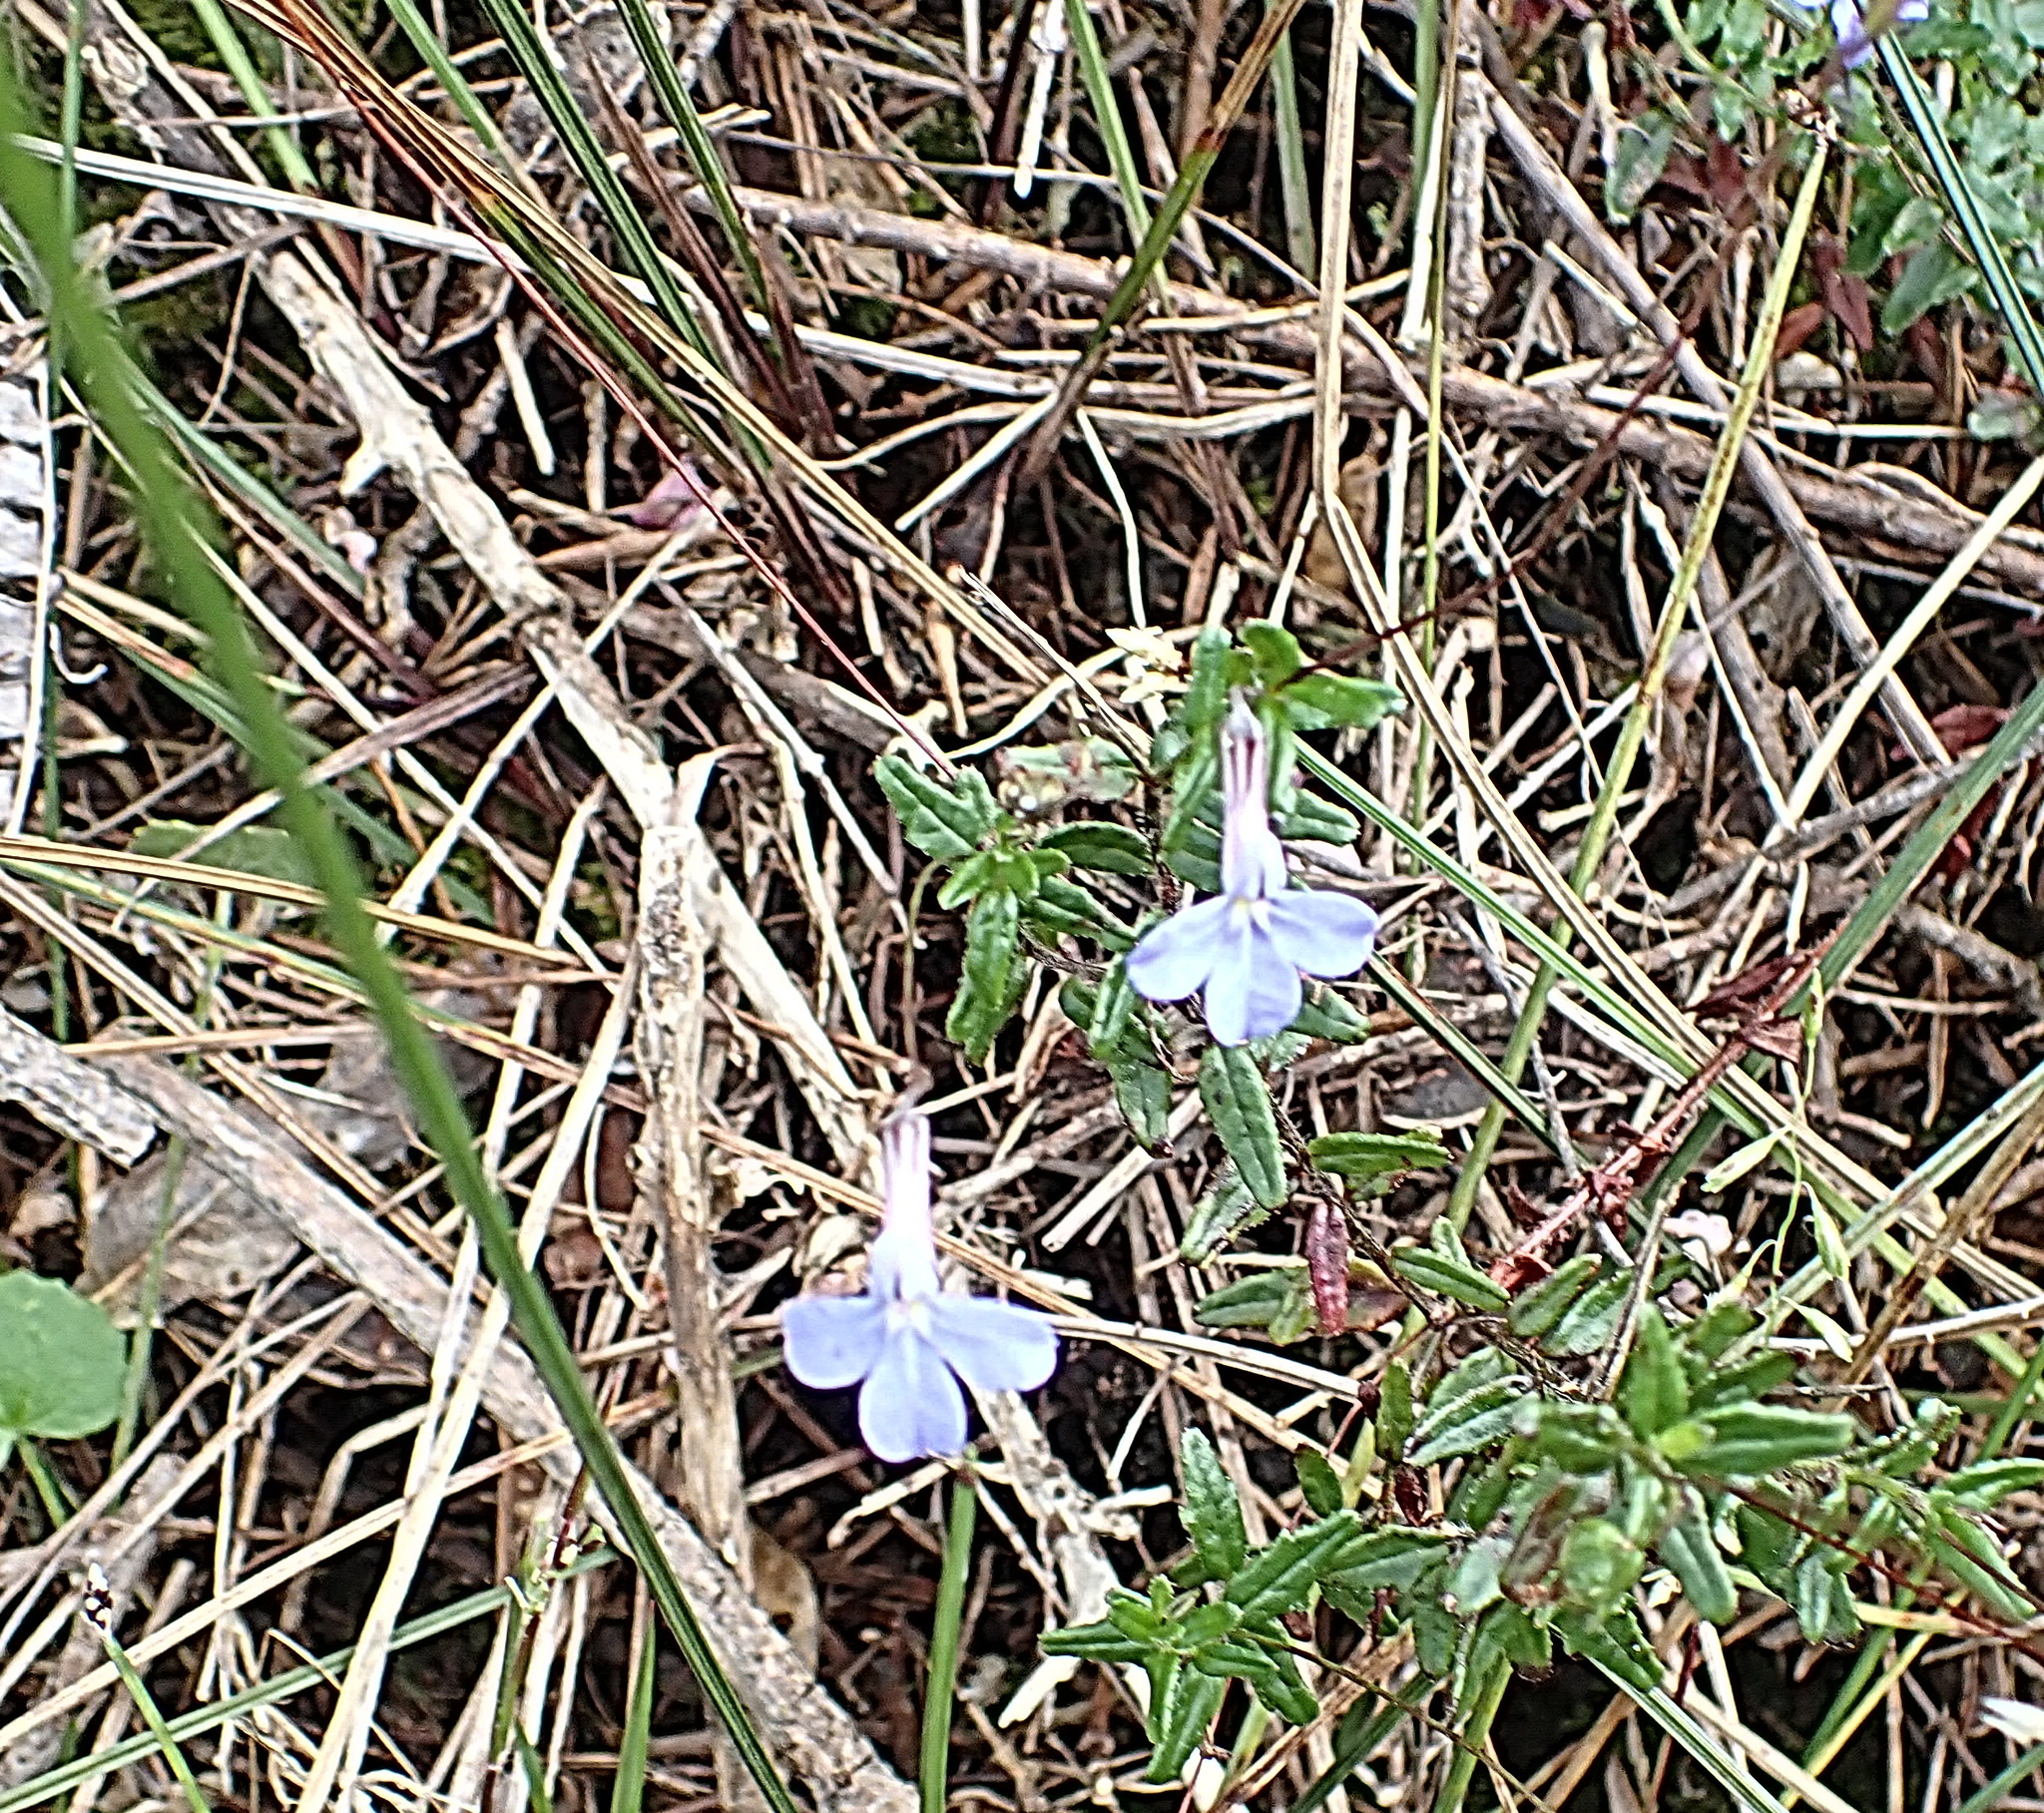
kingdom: Plantae
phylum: Tracheophyta
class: Magnoliopsida
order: Asterales
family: Campanulaceae
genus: Lobelia
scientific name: Lobelia neglecta
